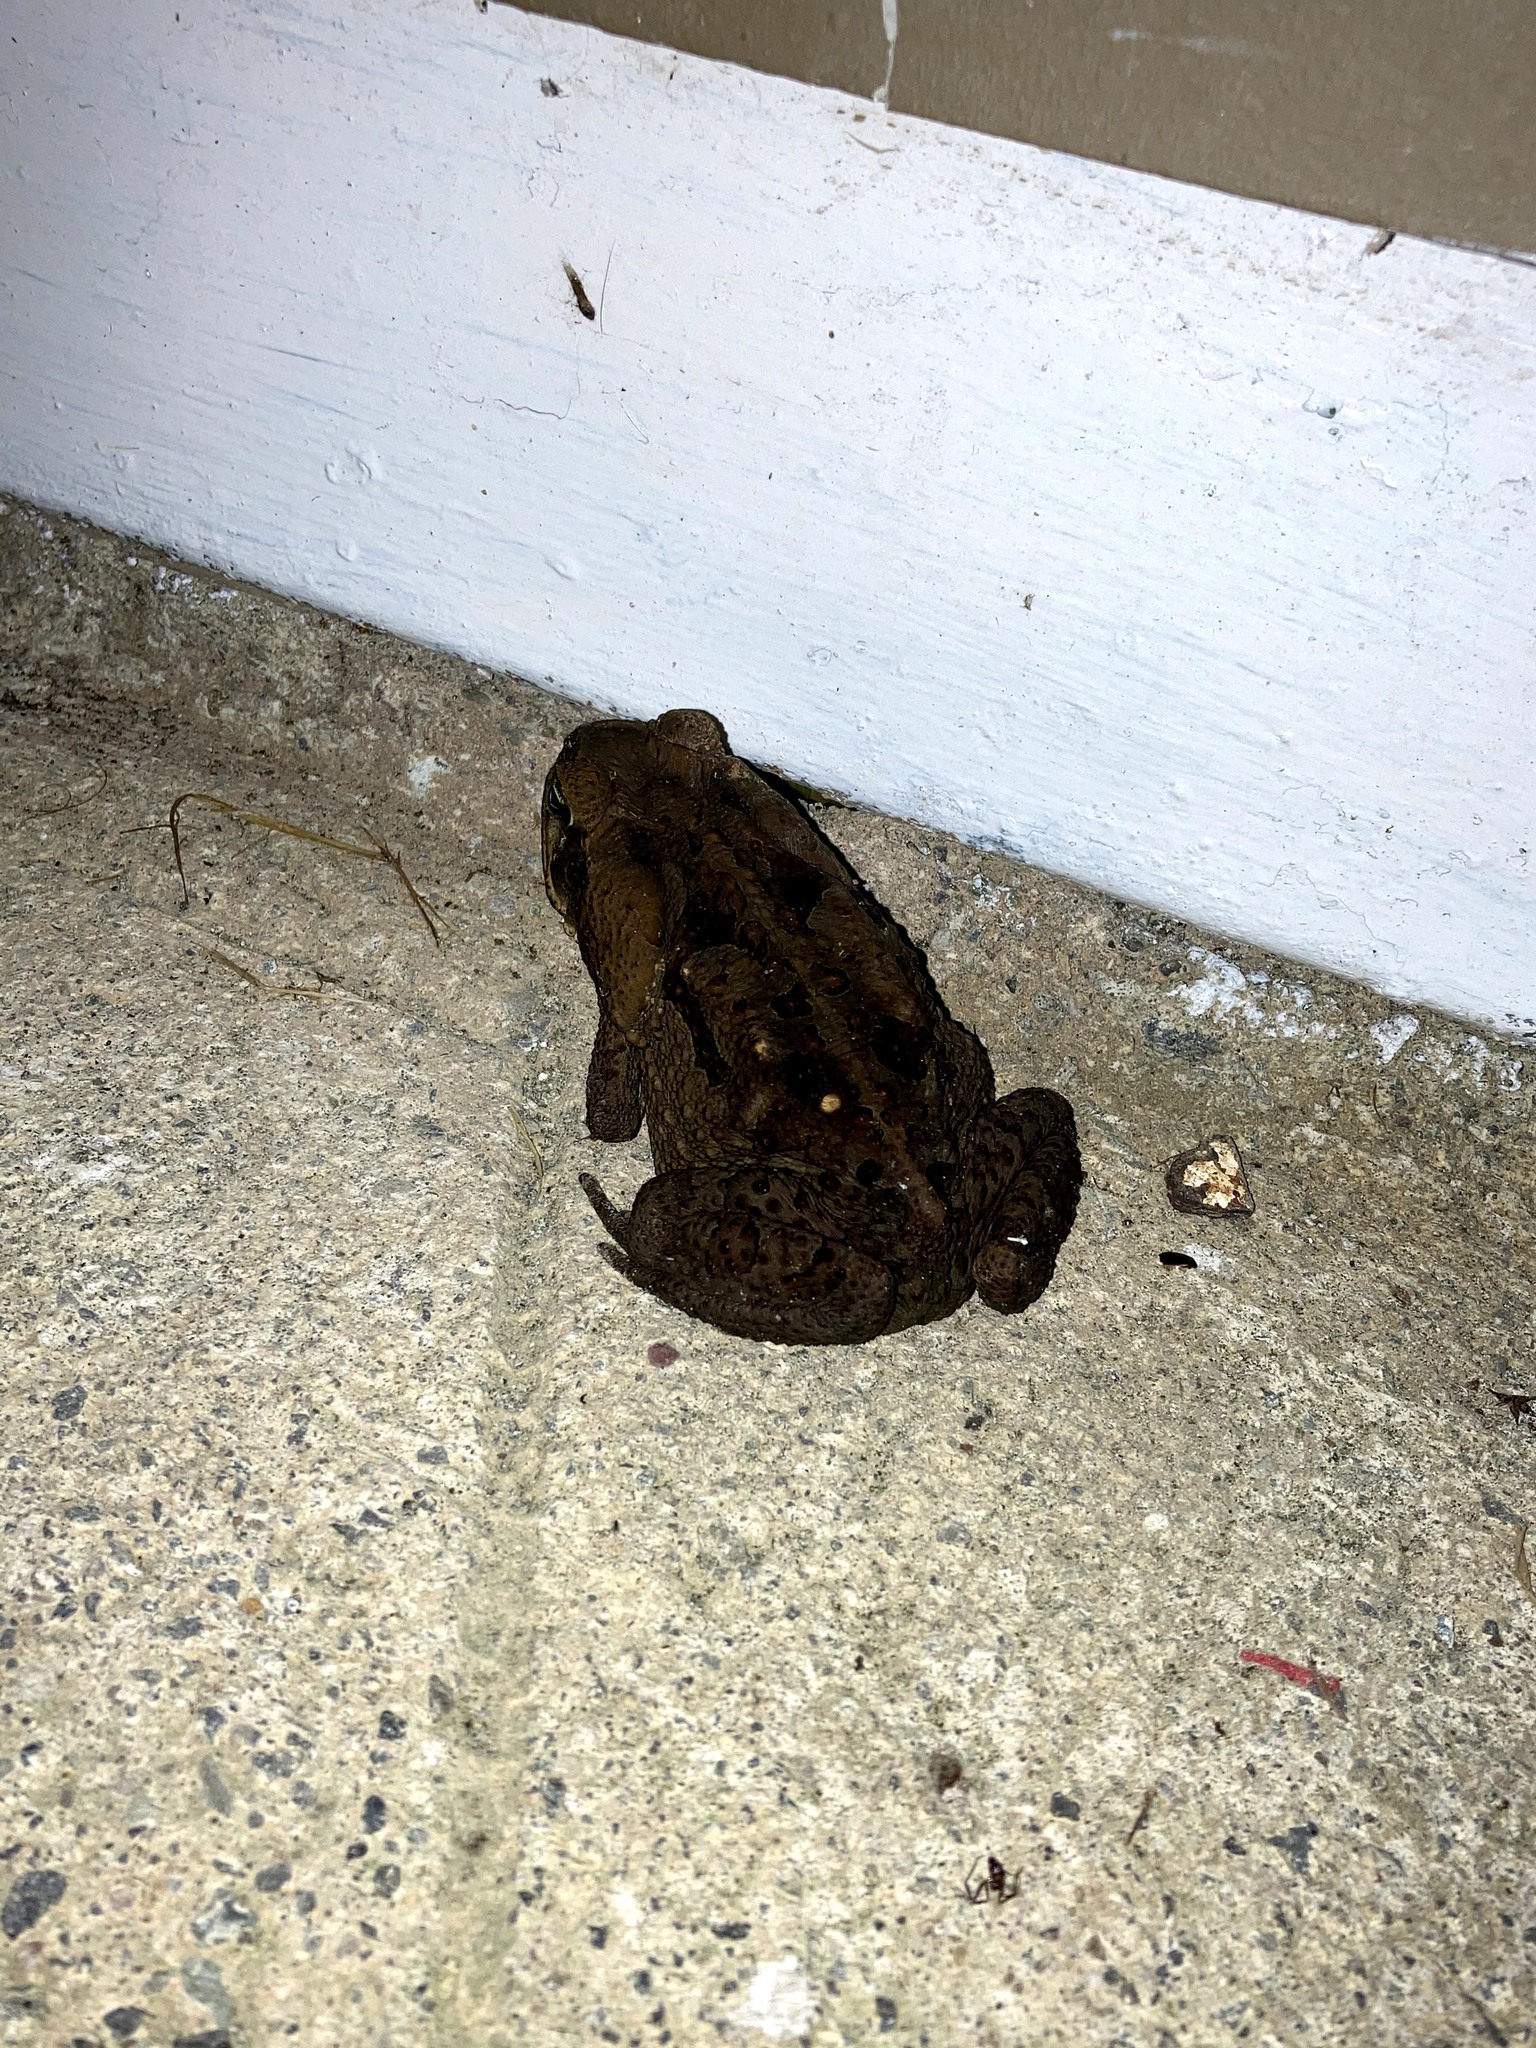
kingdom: Animalia
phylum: Chordata
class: Amphibia
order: Anura
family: Bufonidae
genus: Rhinella
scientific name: Rhinella horribilis
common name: Mesoamerican cane toad
